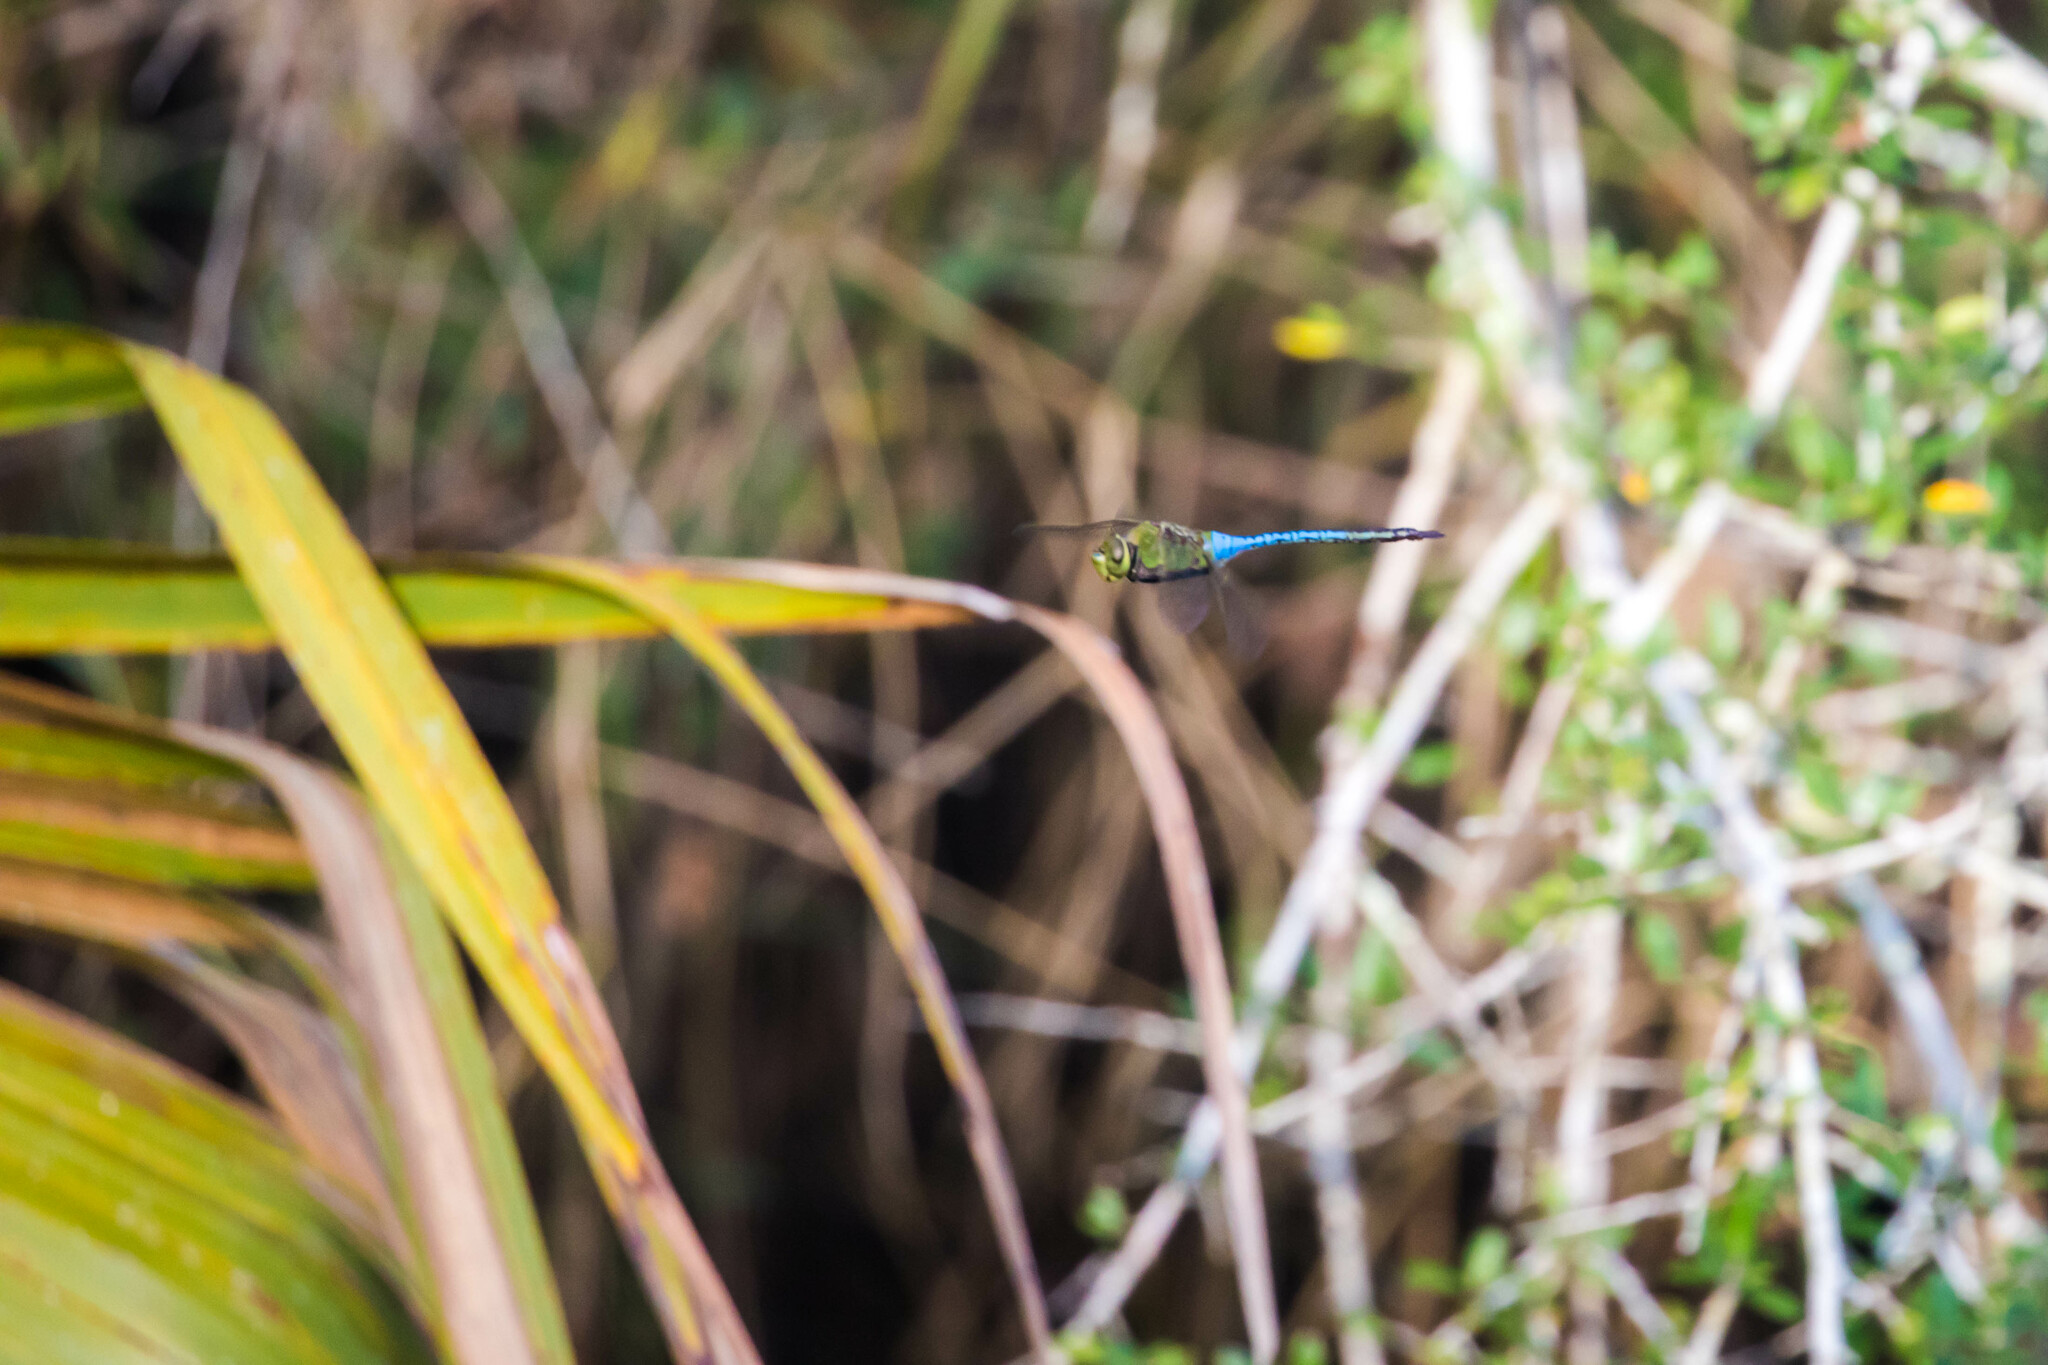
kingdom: Animalia
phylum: Arthropoda
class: Insecta
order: Odonata
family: Aeshnidae
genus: Anax
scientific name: Anax junius
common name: Common green darner
